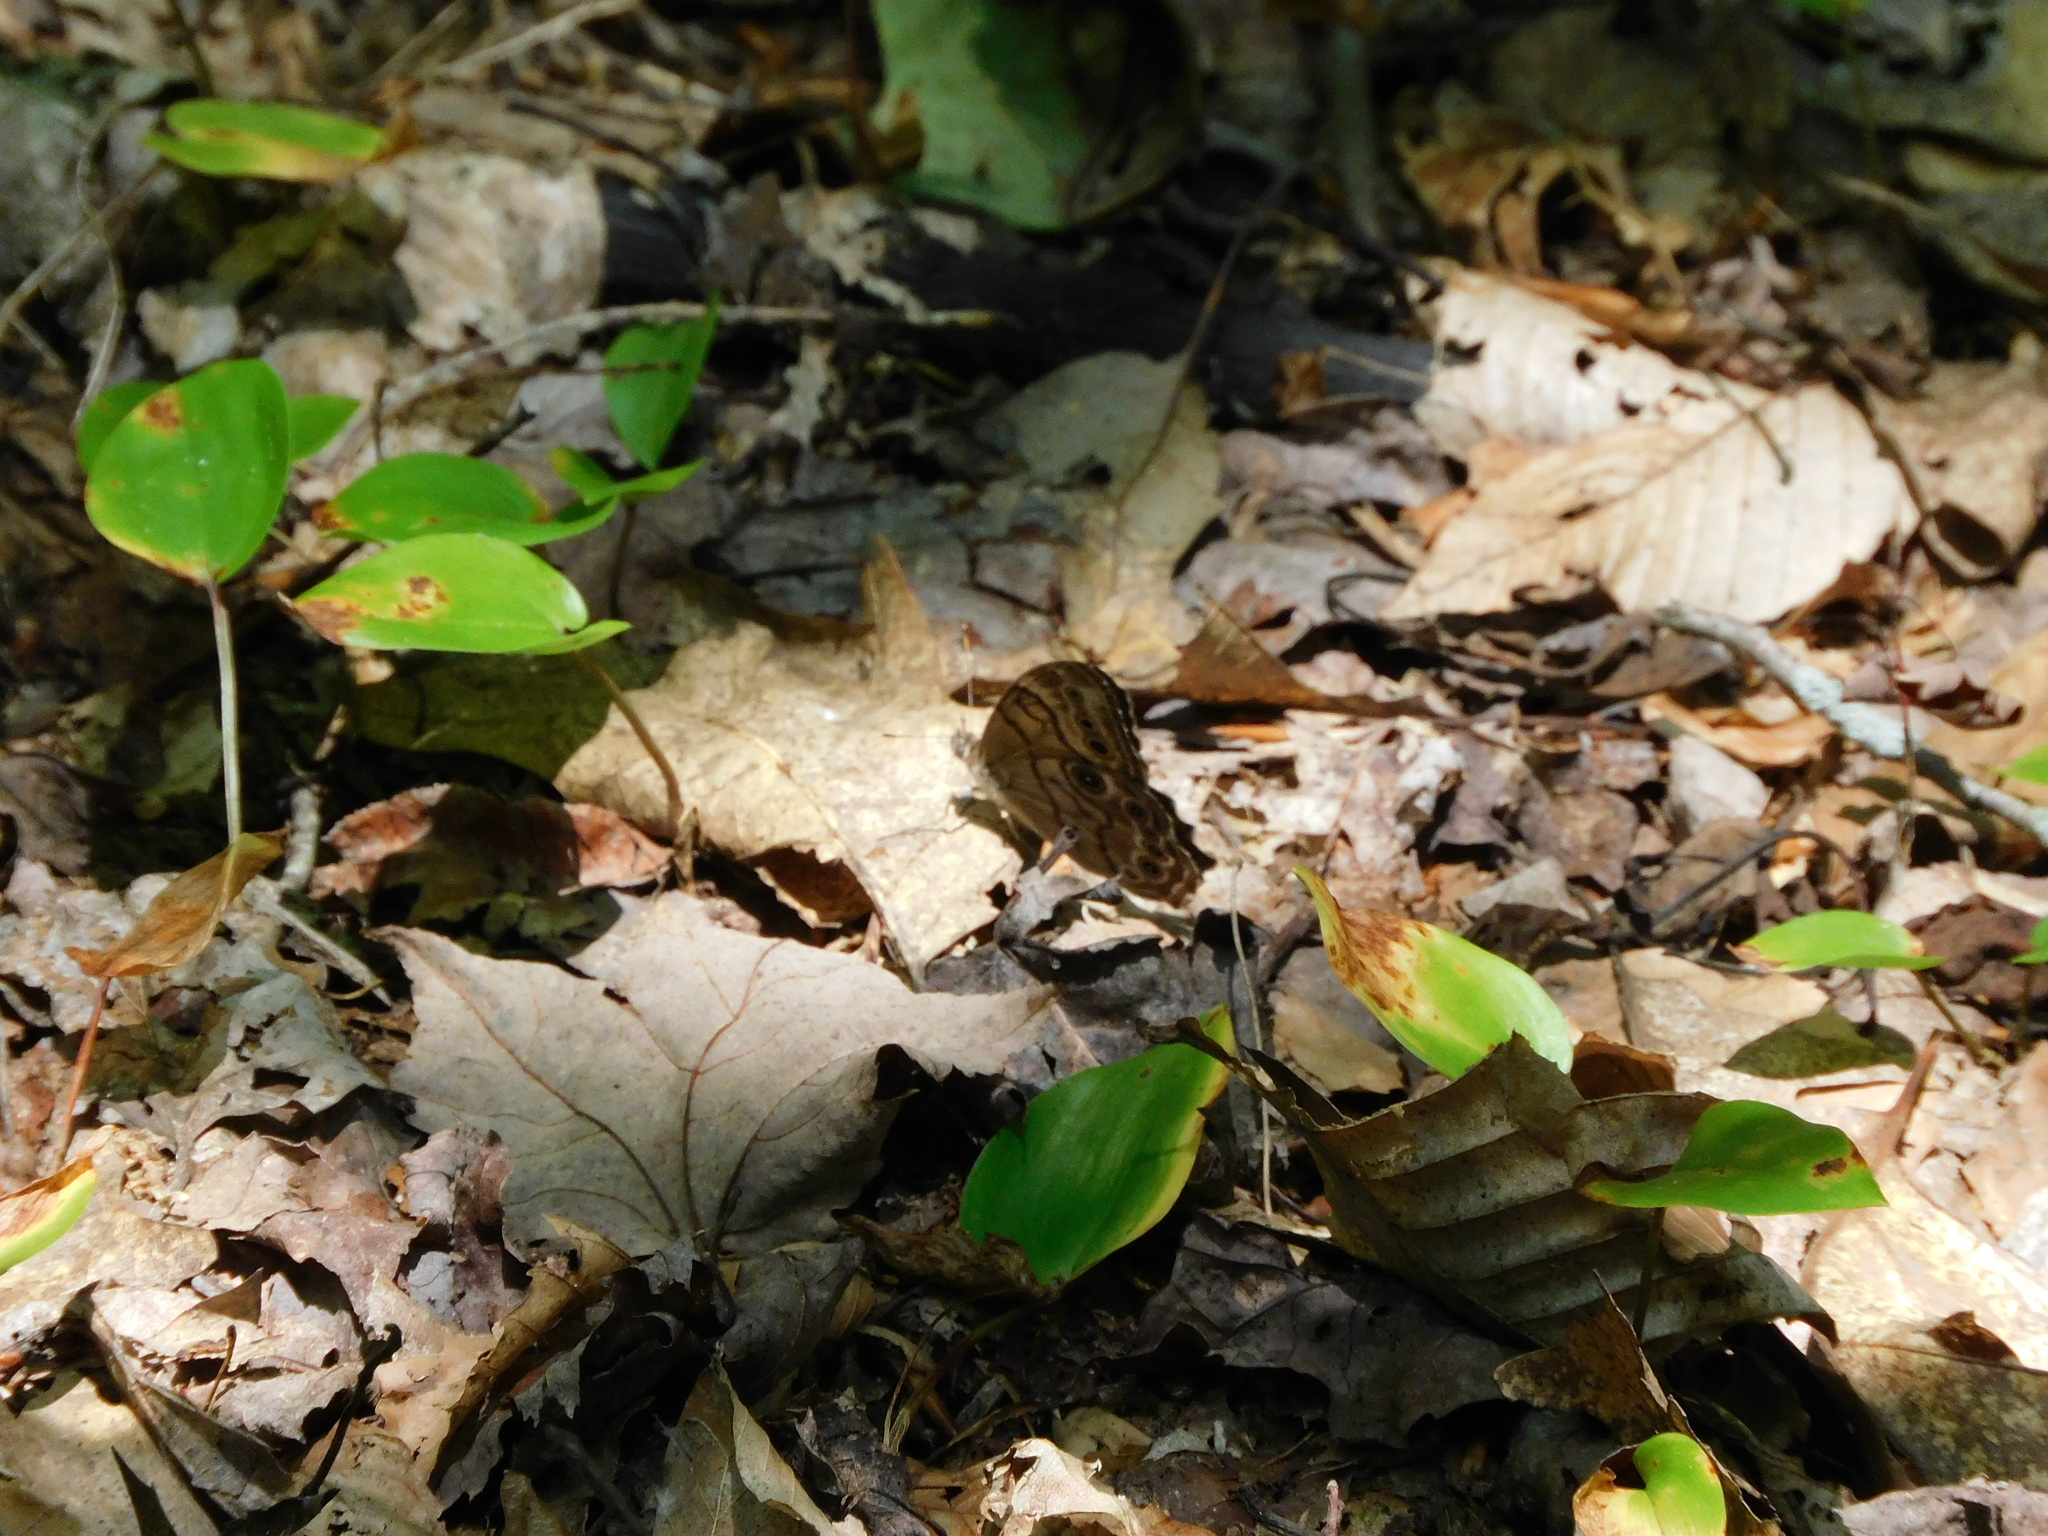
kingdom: Animalia
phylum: Arthropoda
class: Insecta
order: Lepidoptera
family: Nymphalidae
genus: Lethe
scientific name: Lethe anthedon
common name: Northern pearly-eye
